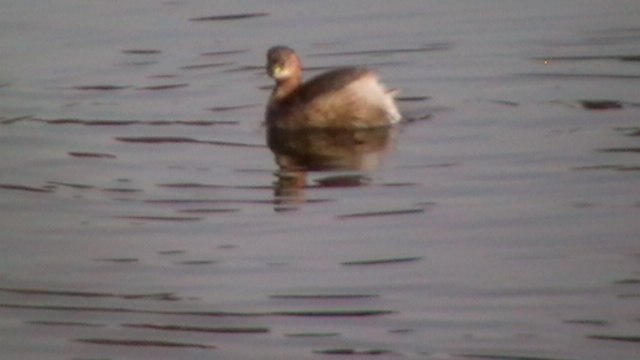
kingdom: Animalia
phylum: Chordata
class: Aves
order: Podicipediformes
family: Podicipedidae
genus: Tachybaptus
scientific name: Tachybaptus ruficollis
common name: Little grebe
